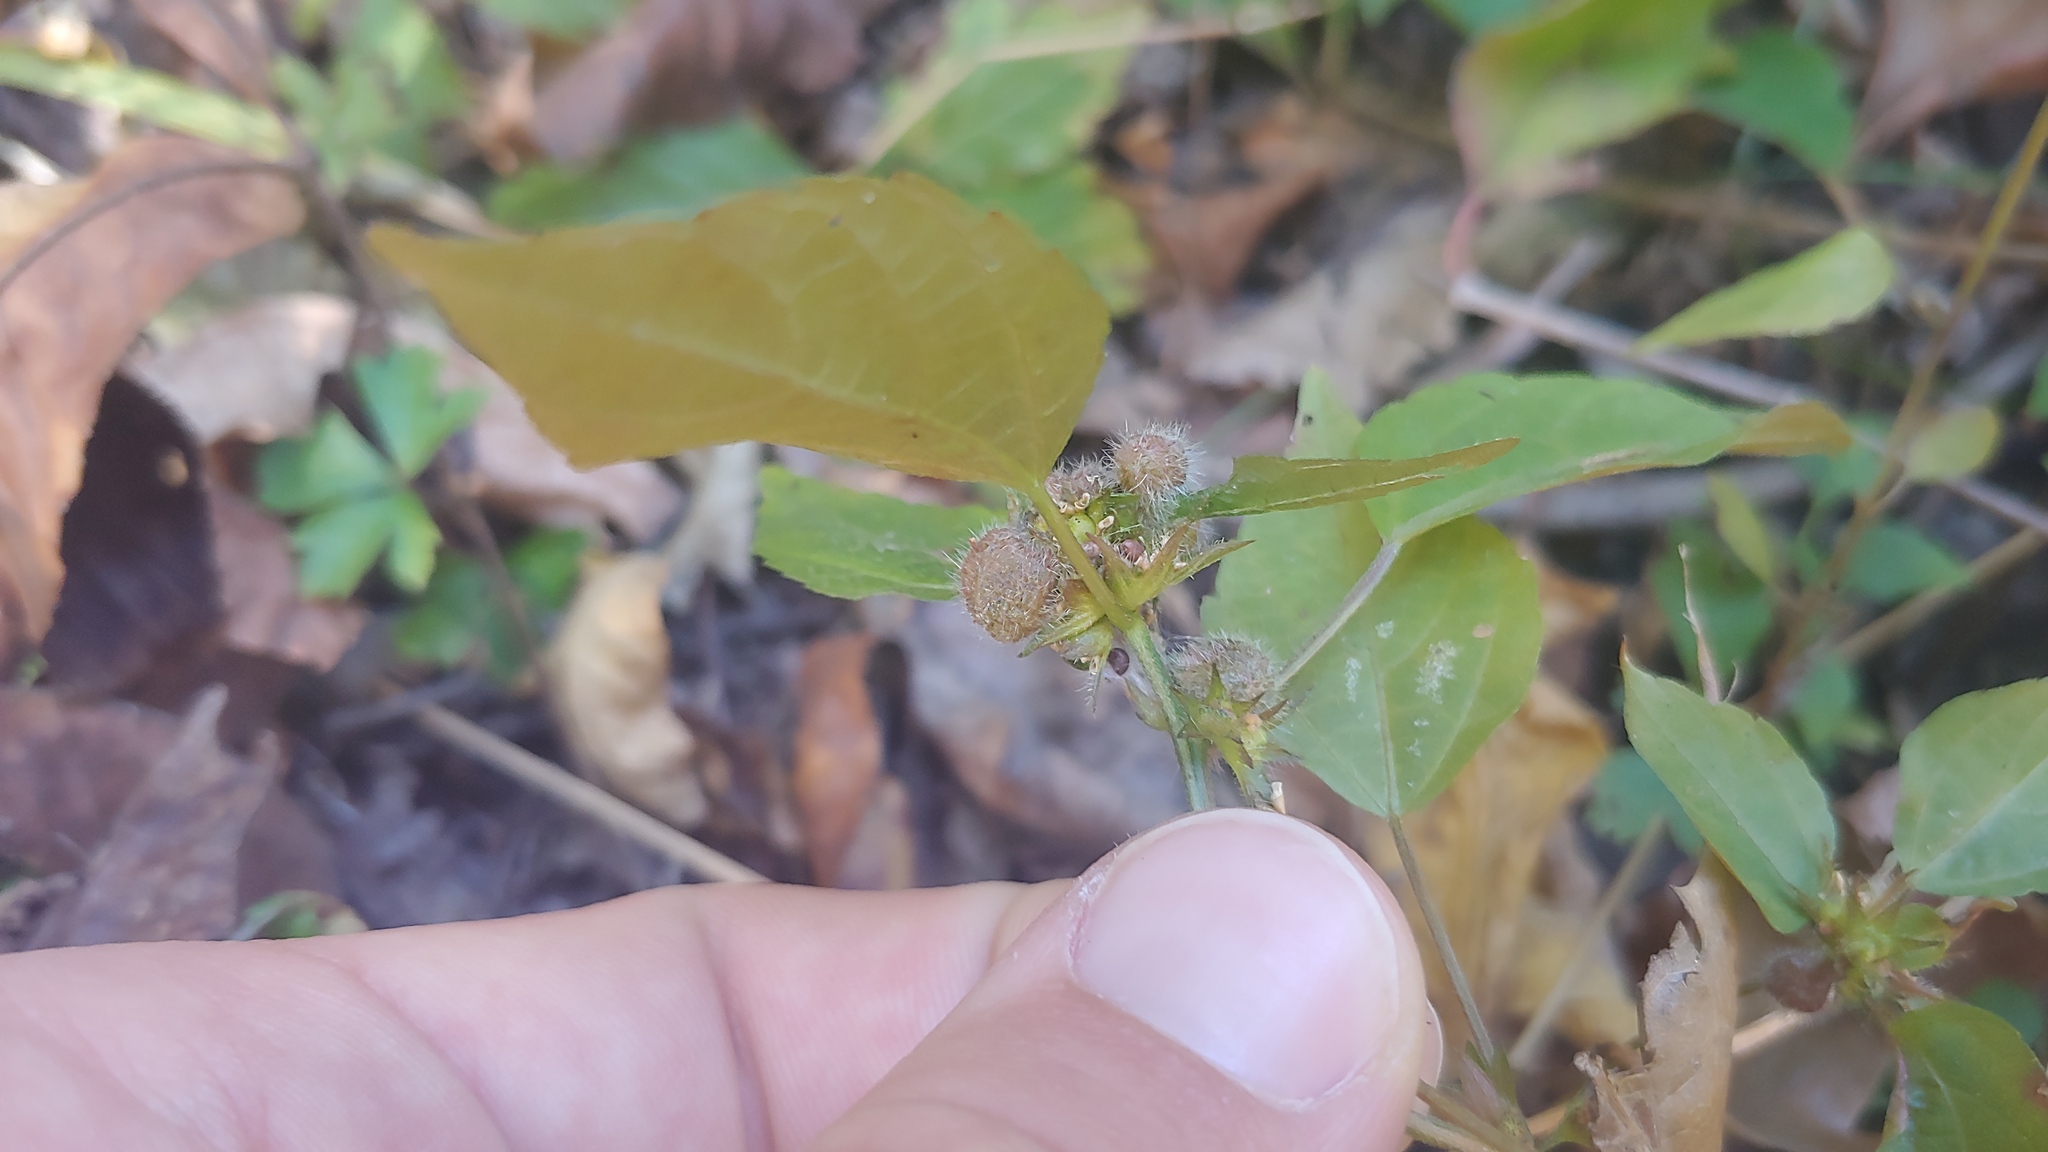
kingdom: Animalia
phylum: Arthropoda
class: Insecta
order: Diptera
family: Cecidomyiidae
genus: Resseliella
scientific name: Resseliella globosa
